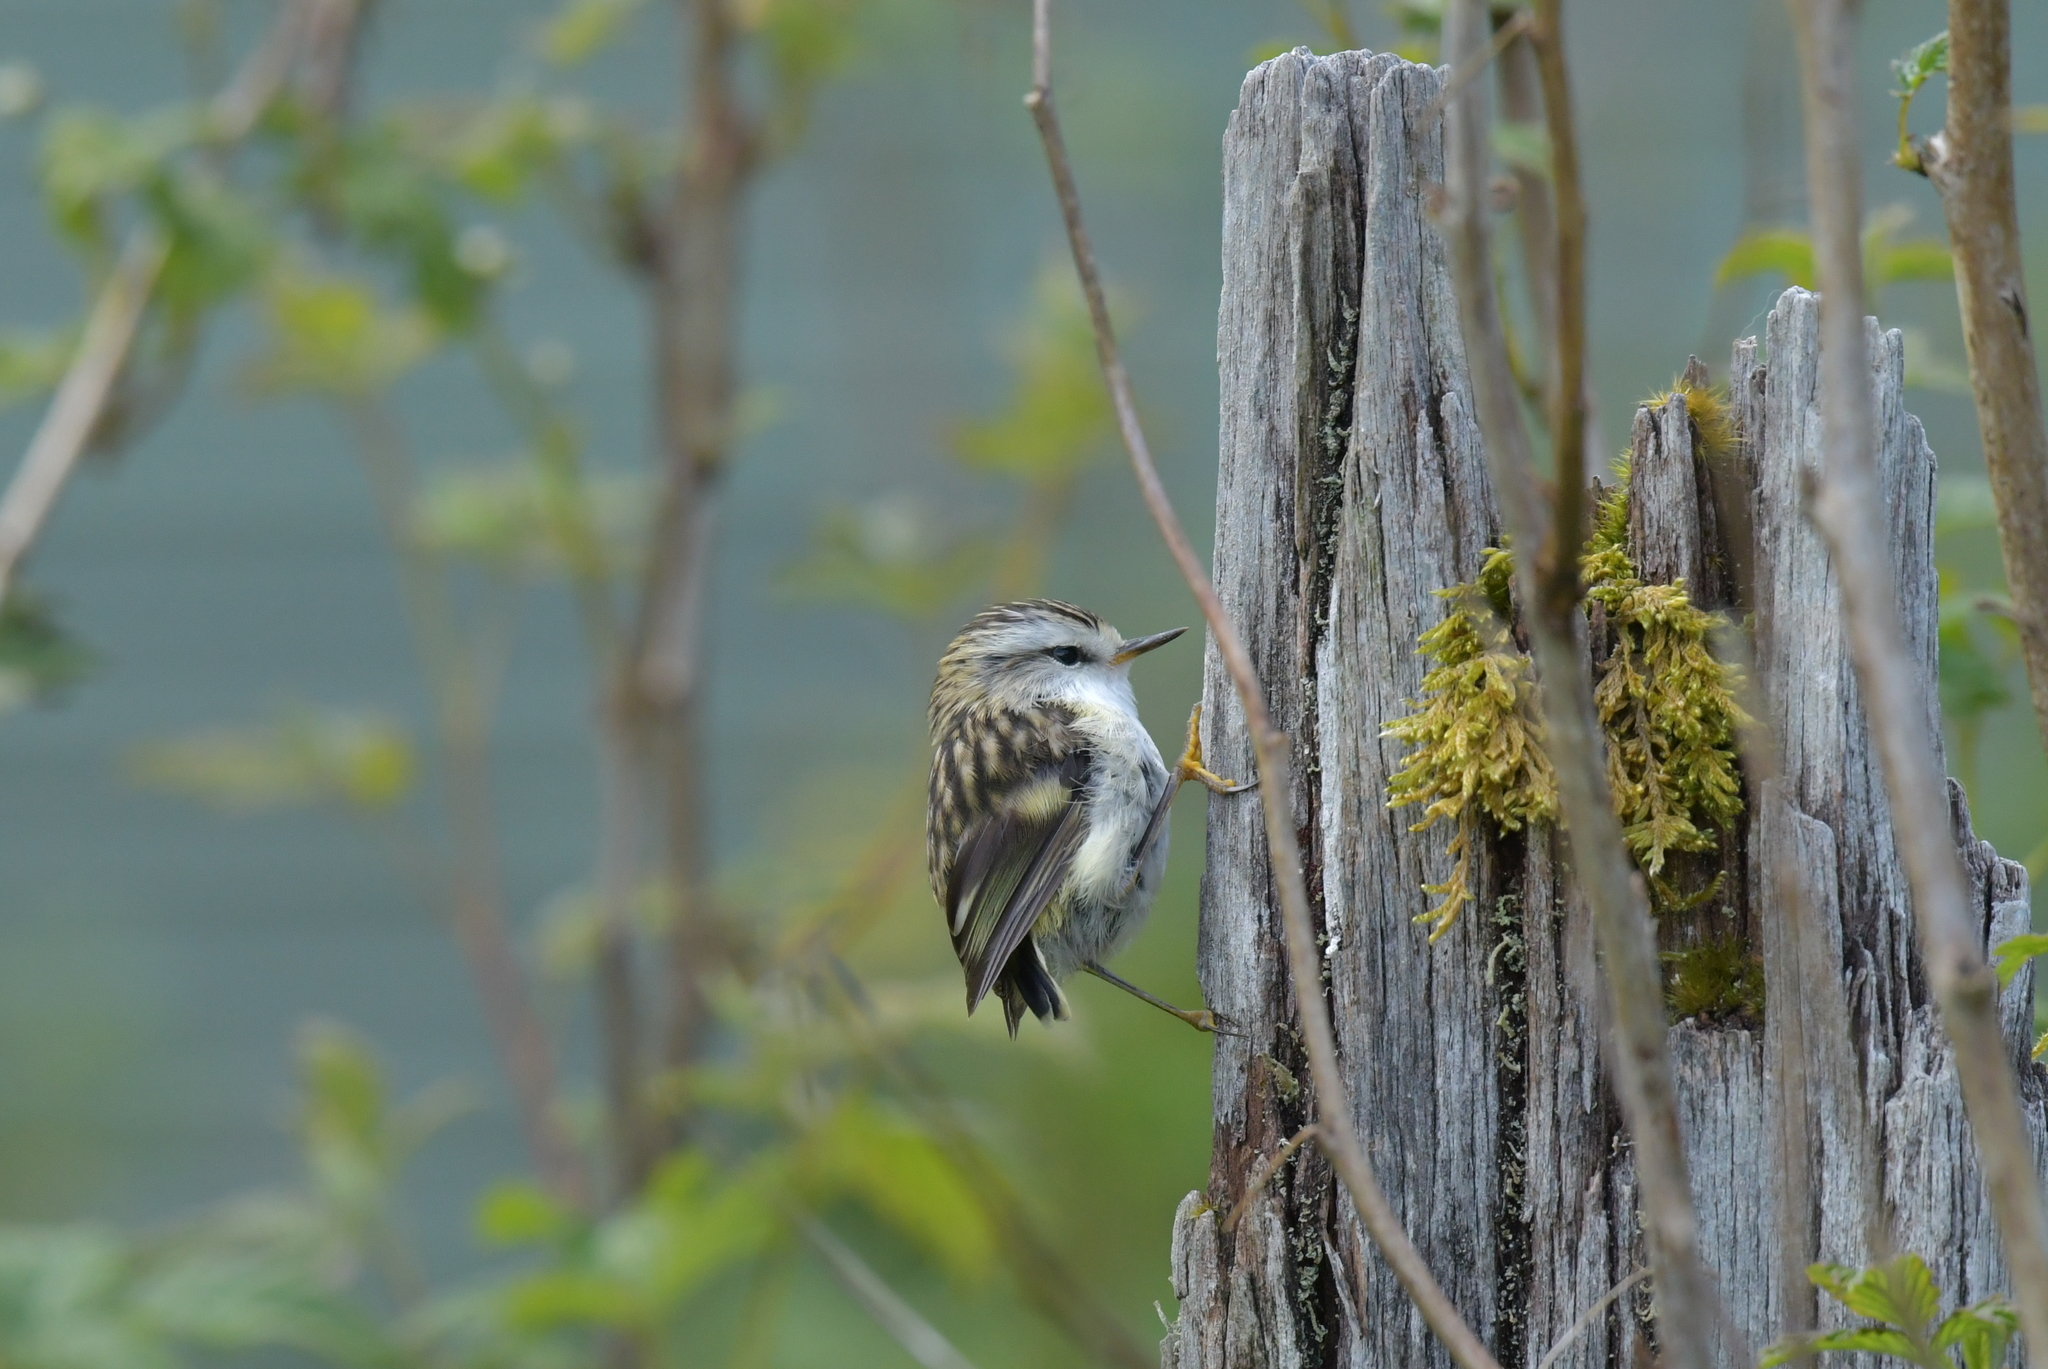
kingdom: Animalia
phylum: Chordata
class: Aves
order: Passeriformes
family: Acanthisittidae
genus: Acanthisitta
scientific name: Acanthisitta chloris
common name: Rifleman
